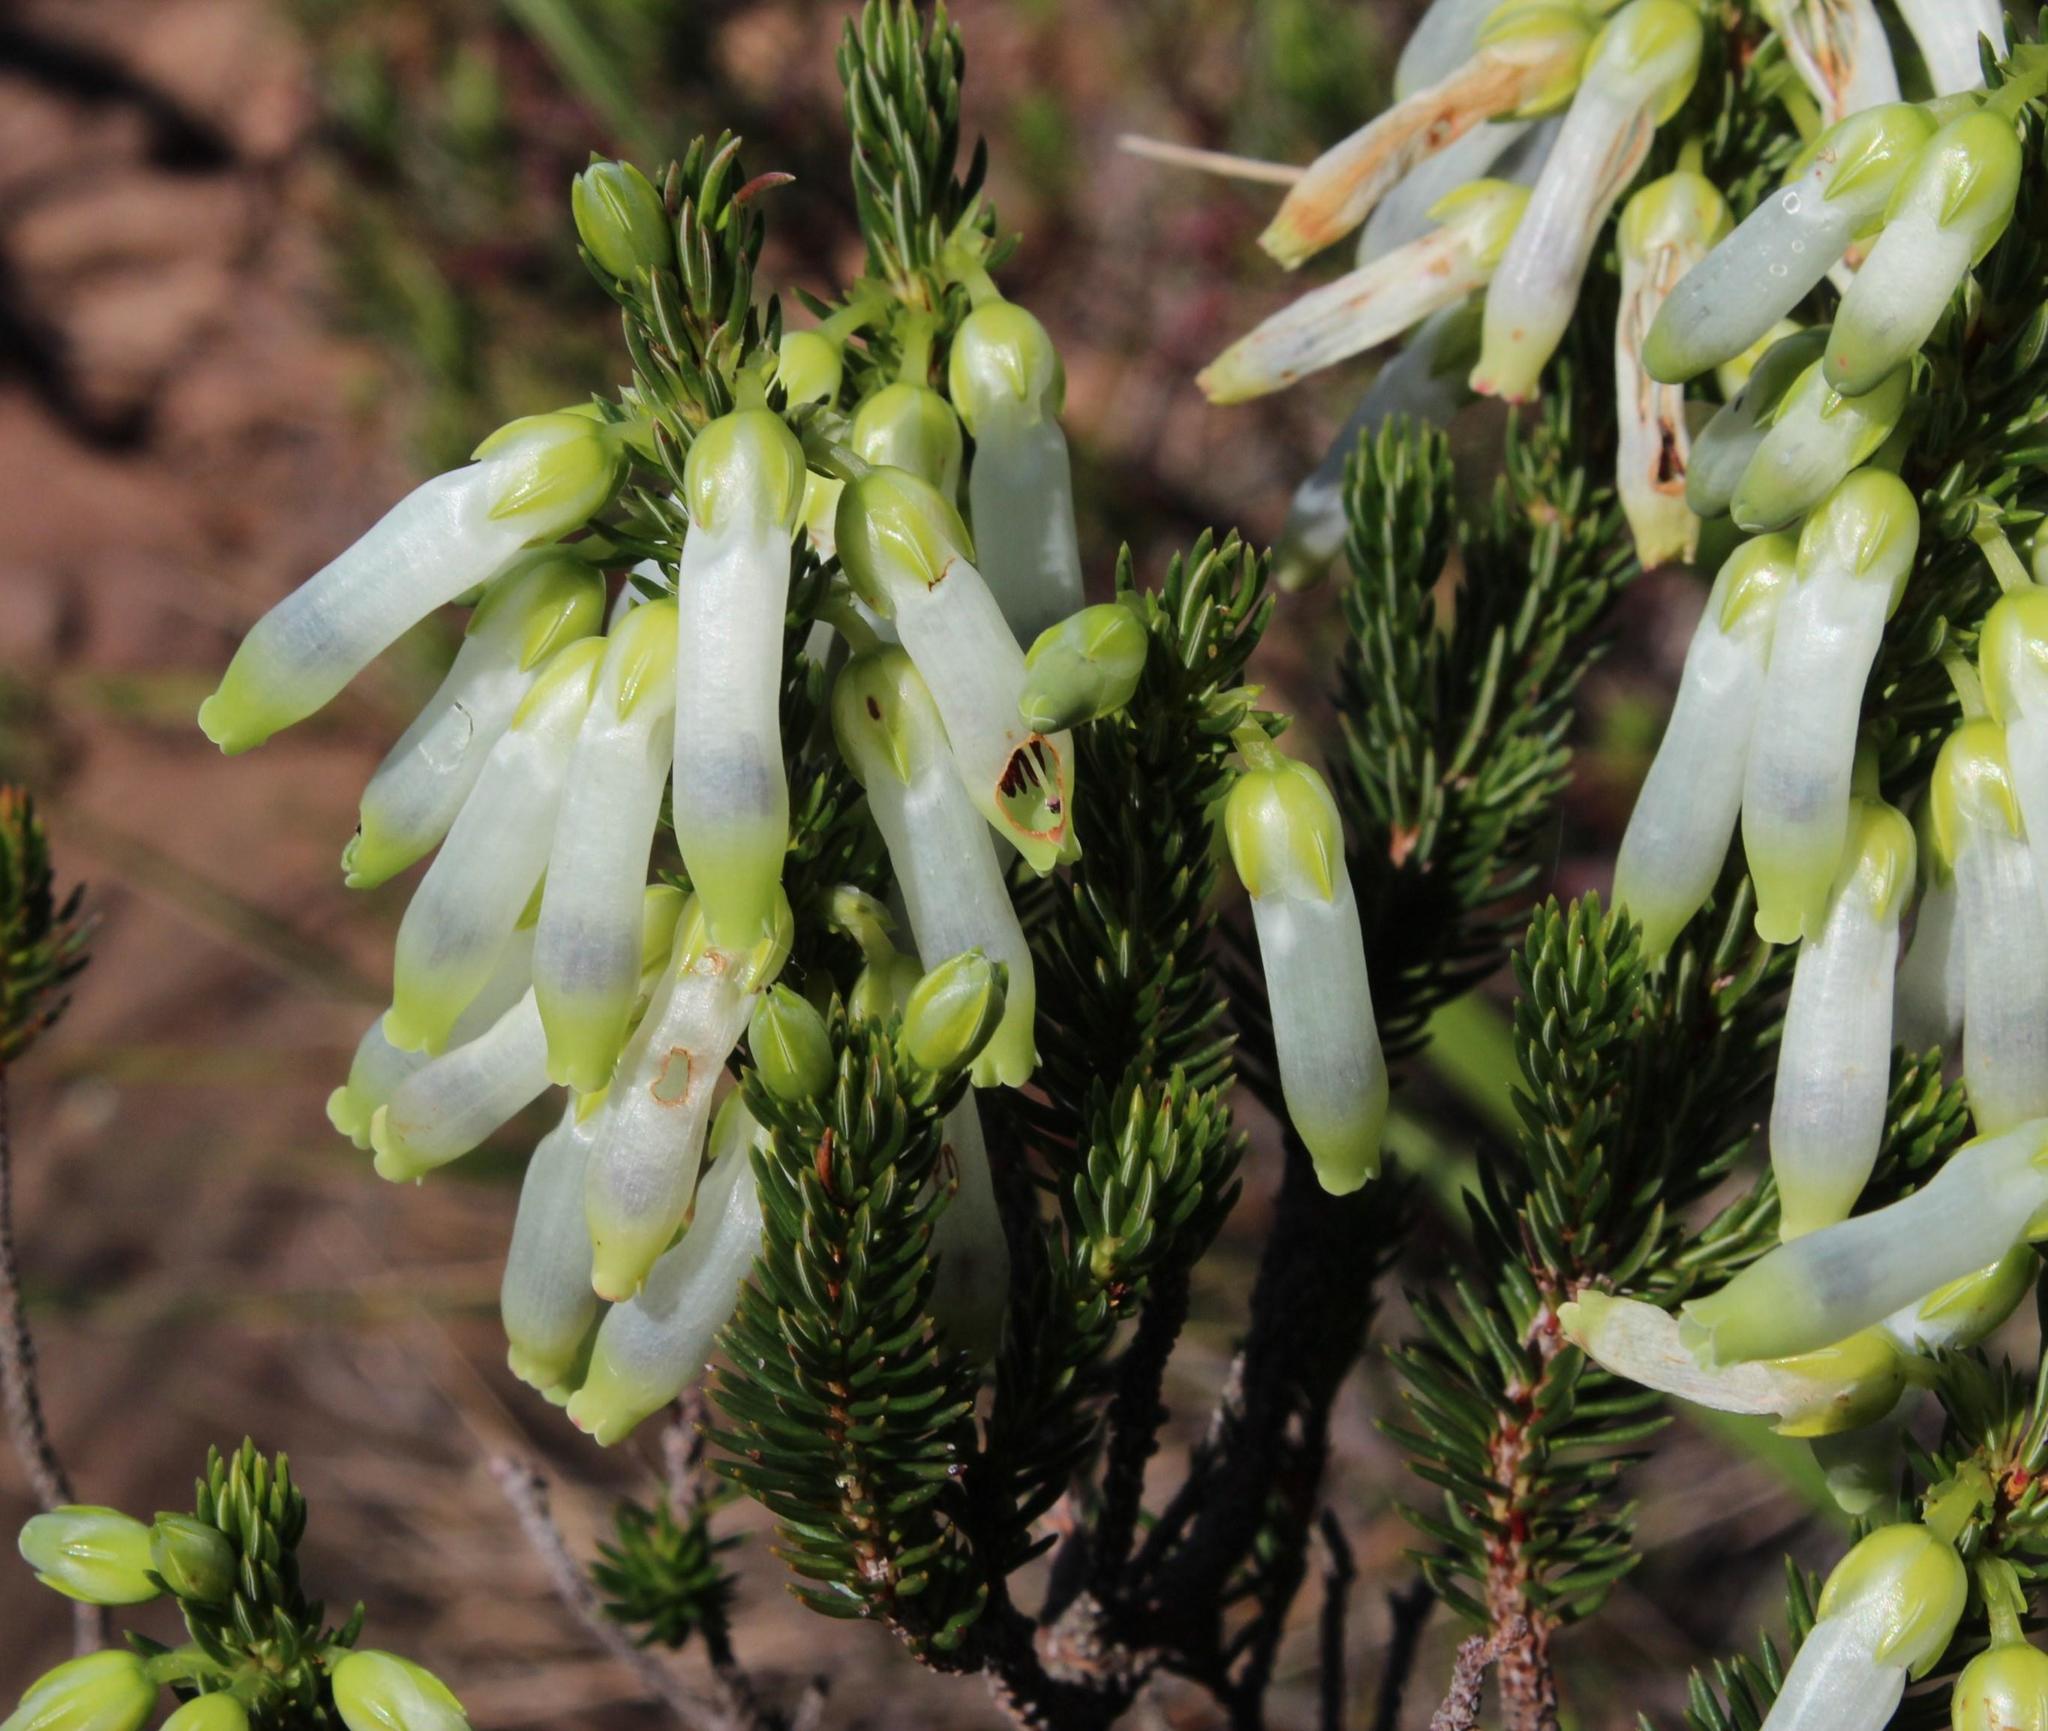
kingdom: Plantae
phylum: Tracheophyta
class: Magnoliopsida
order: Ericales
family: Ericaceae
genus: Erica
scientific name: Erica mammosa
